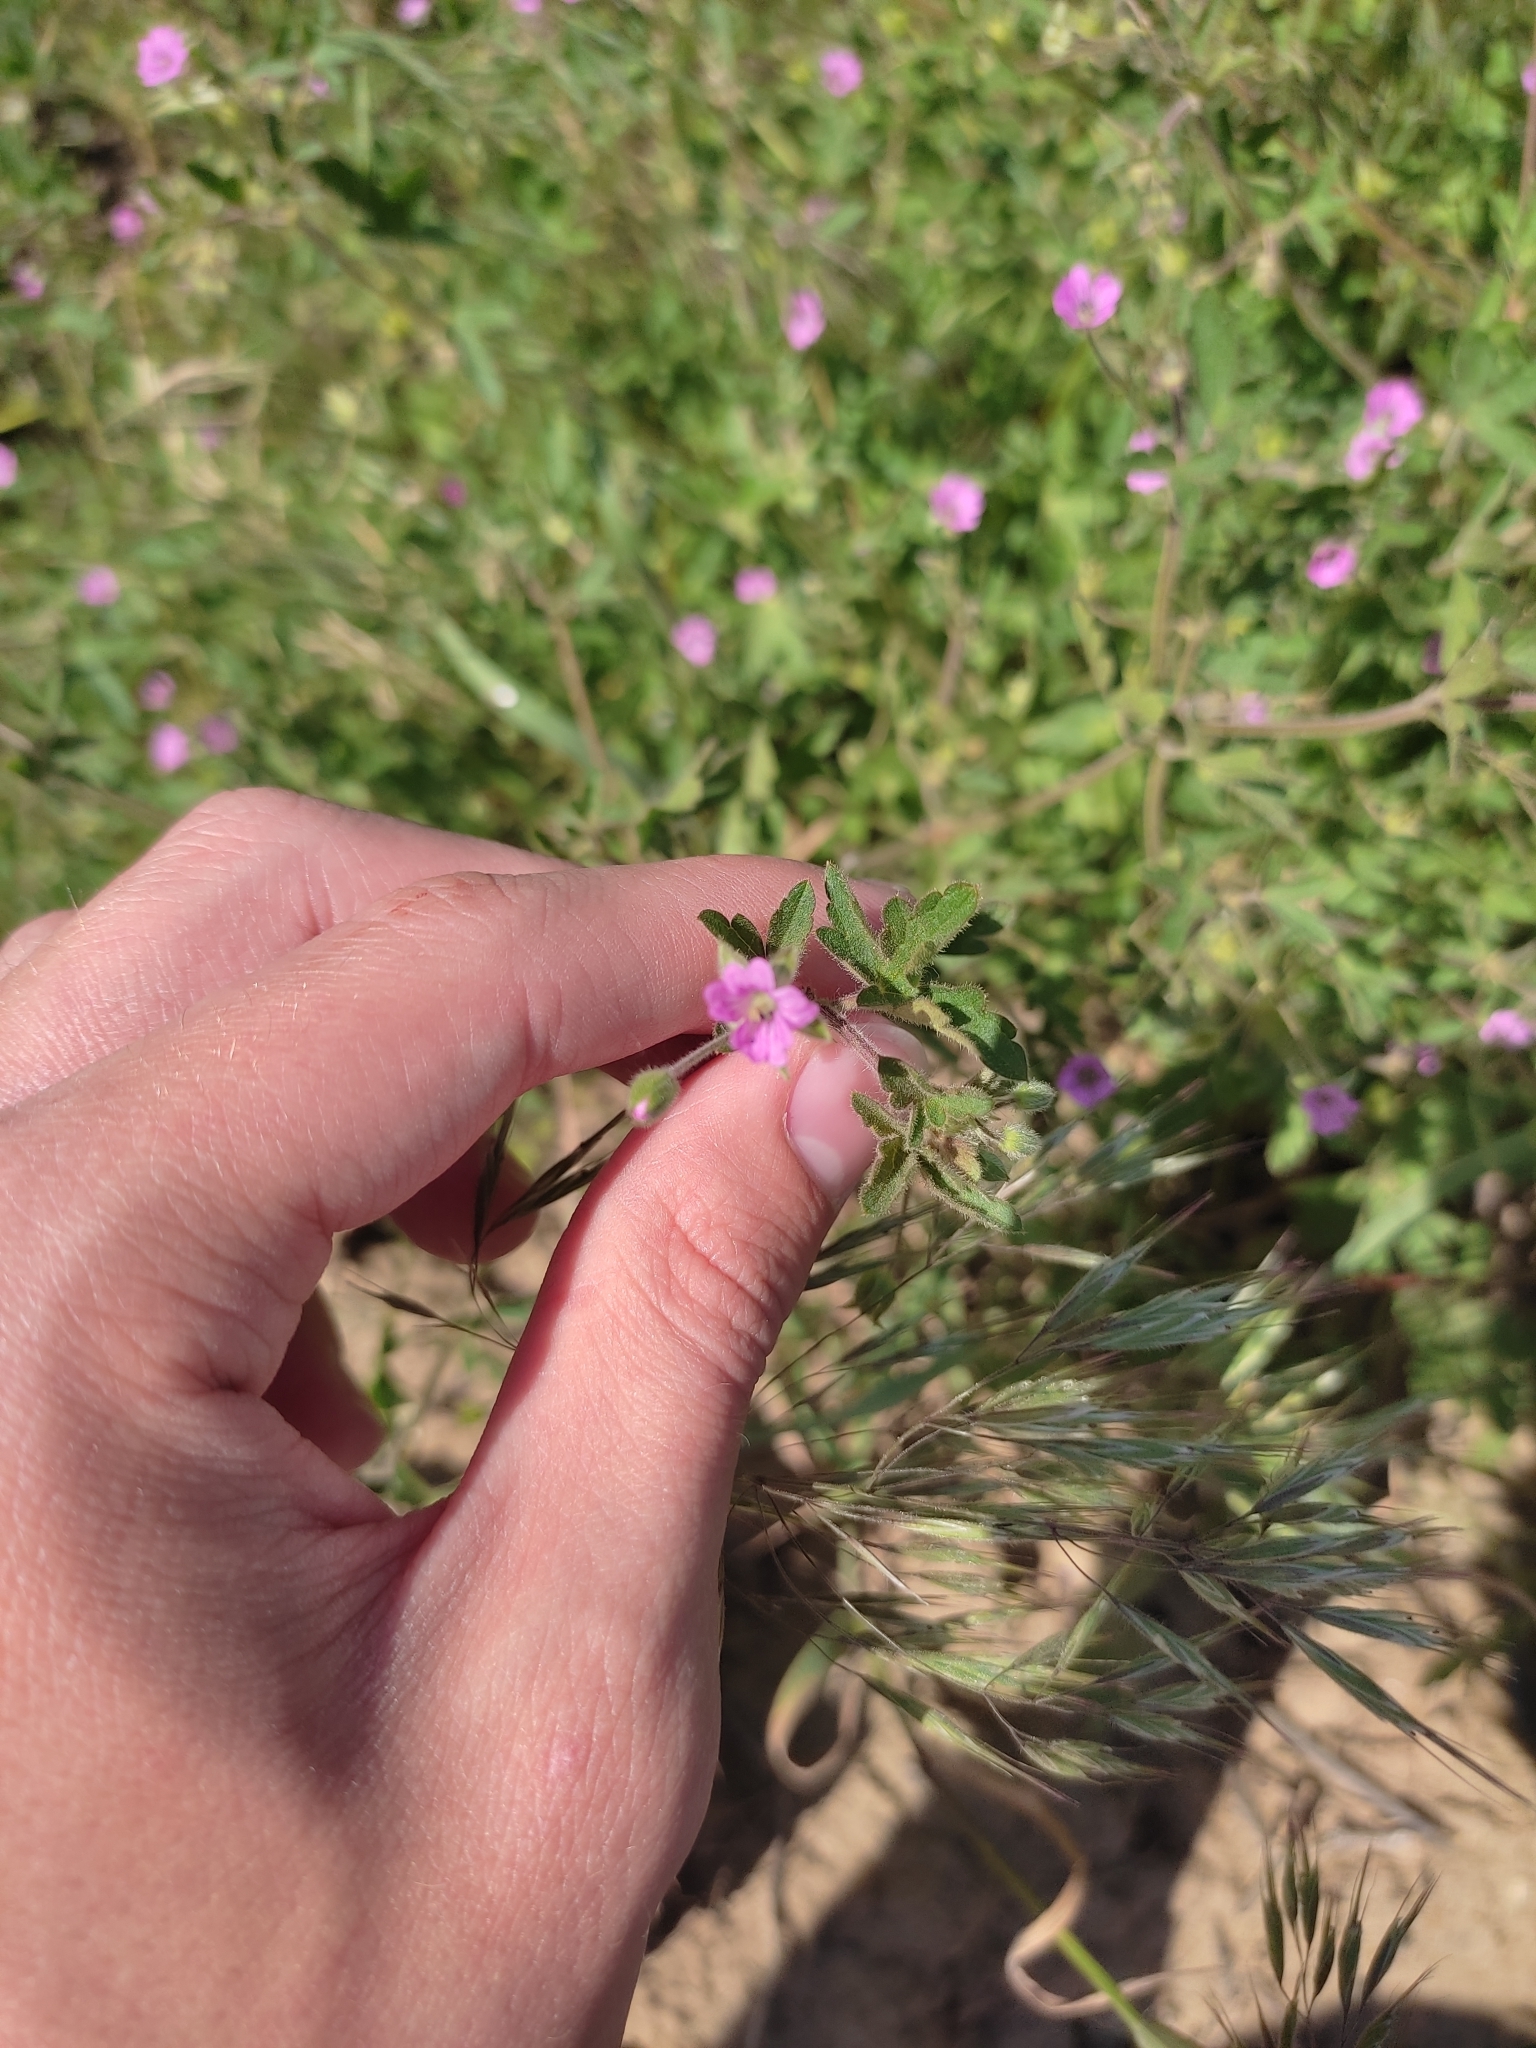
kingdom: Plantae
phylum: Tracheophyta
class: Magnoliopsida
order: Geraniales
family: Geraniaceae
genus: Geranium
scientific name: Geranium divaricatum
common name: Spreading crane's-bill
